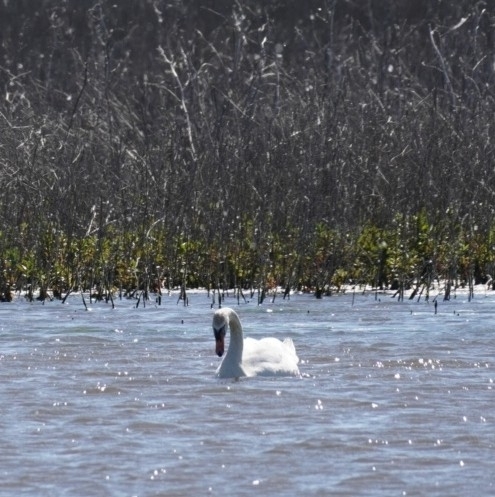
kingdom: Animalia
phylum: Chordata
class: Aves
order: Anseriformes
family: Anatidae
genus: Cygnus
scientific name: Cygnus olor
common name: Mute swan
